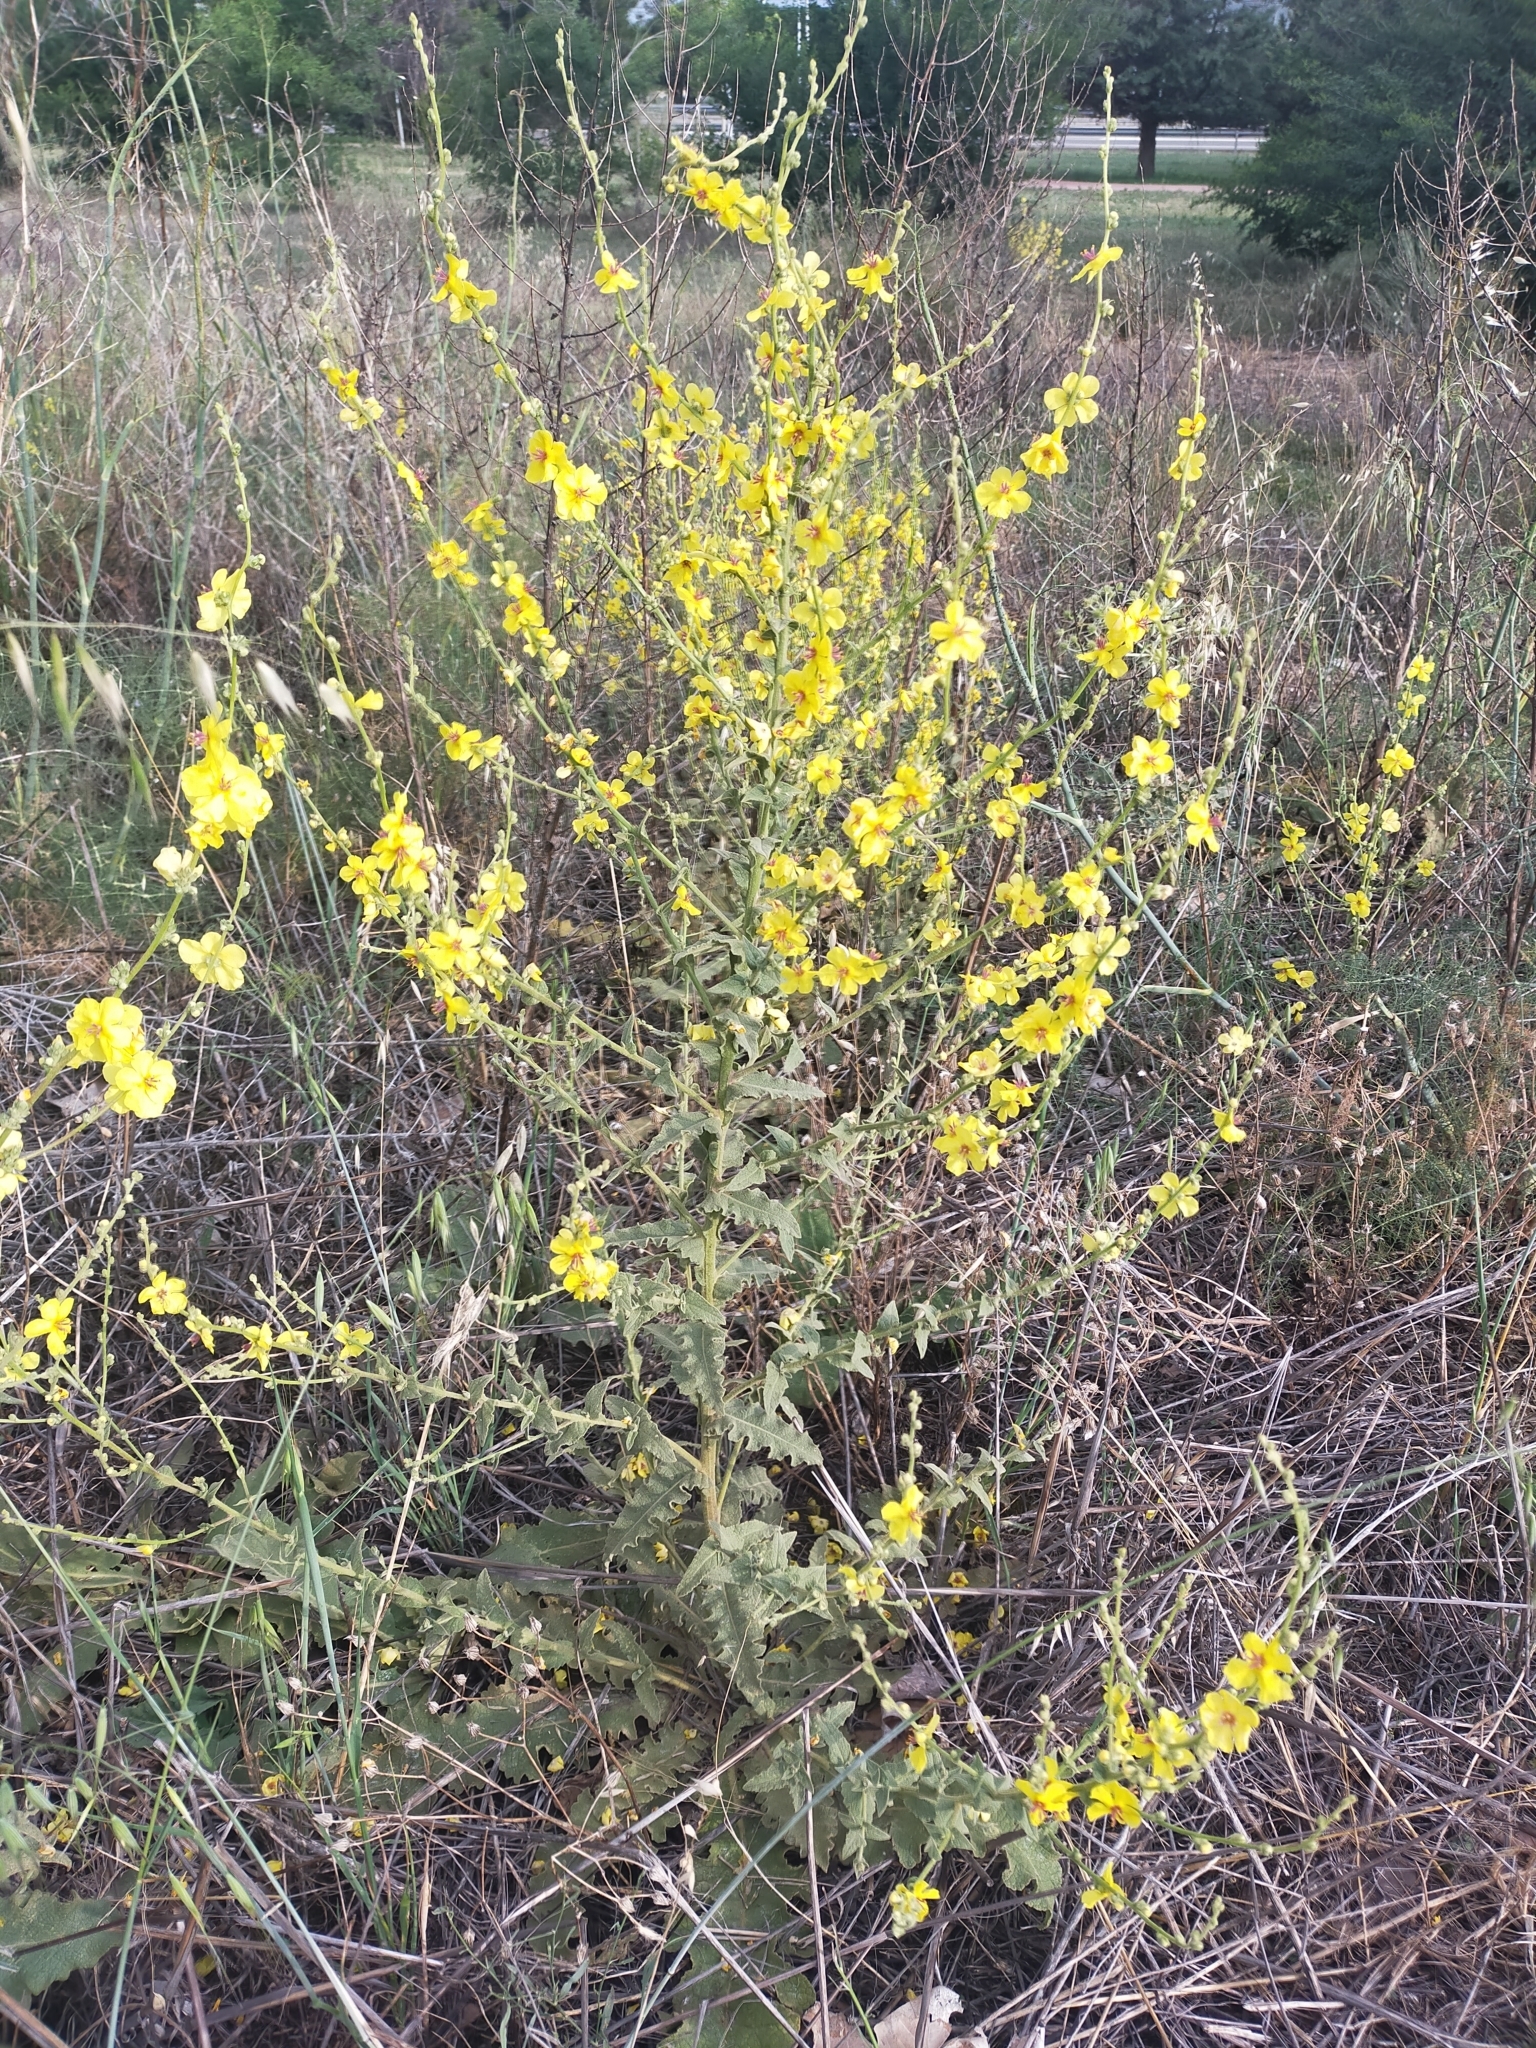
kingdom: Plantae
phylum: Tracheophyta
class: Magnoliopsida
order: Lamiales
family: Scrophulariaceae
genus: Verbascum
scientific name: Verbascum sinuatum
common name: Wavyleaf mullein
